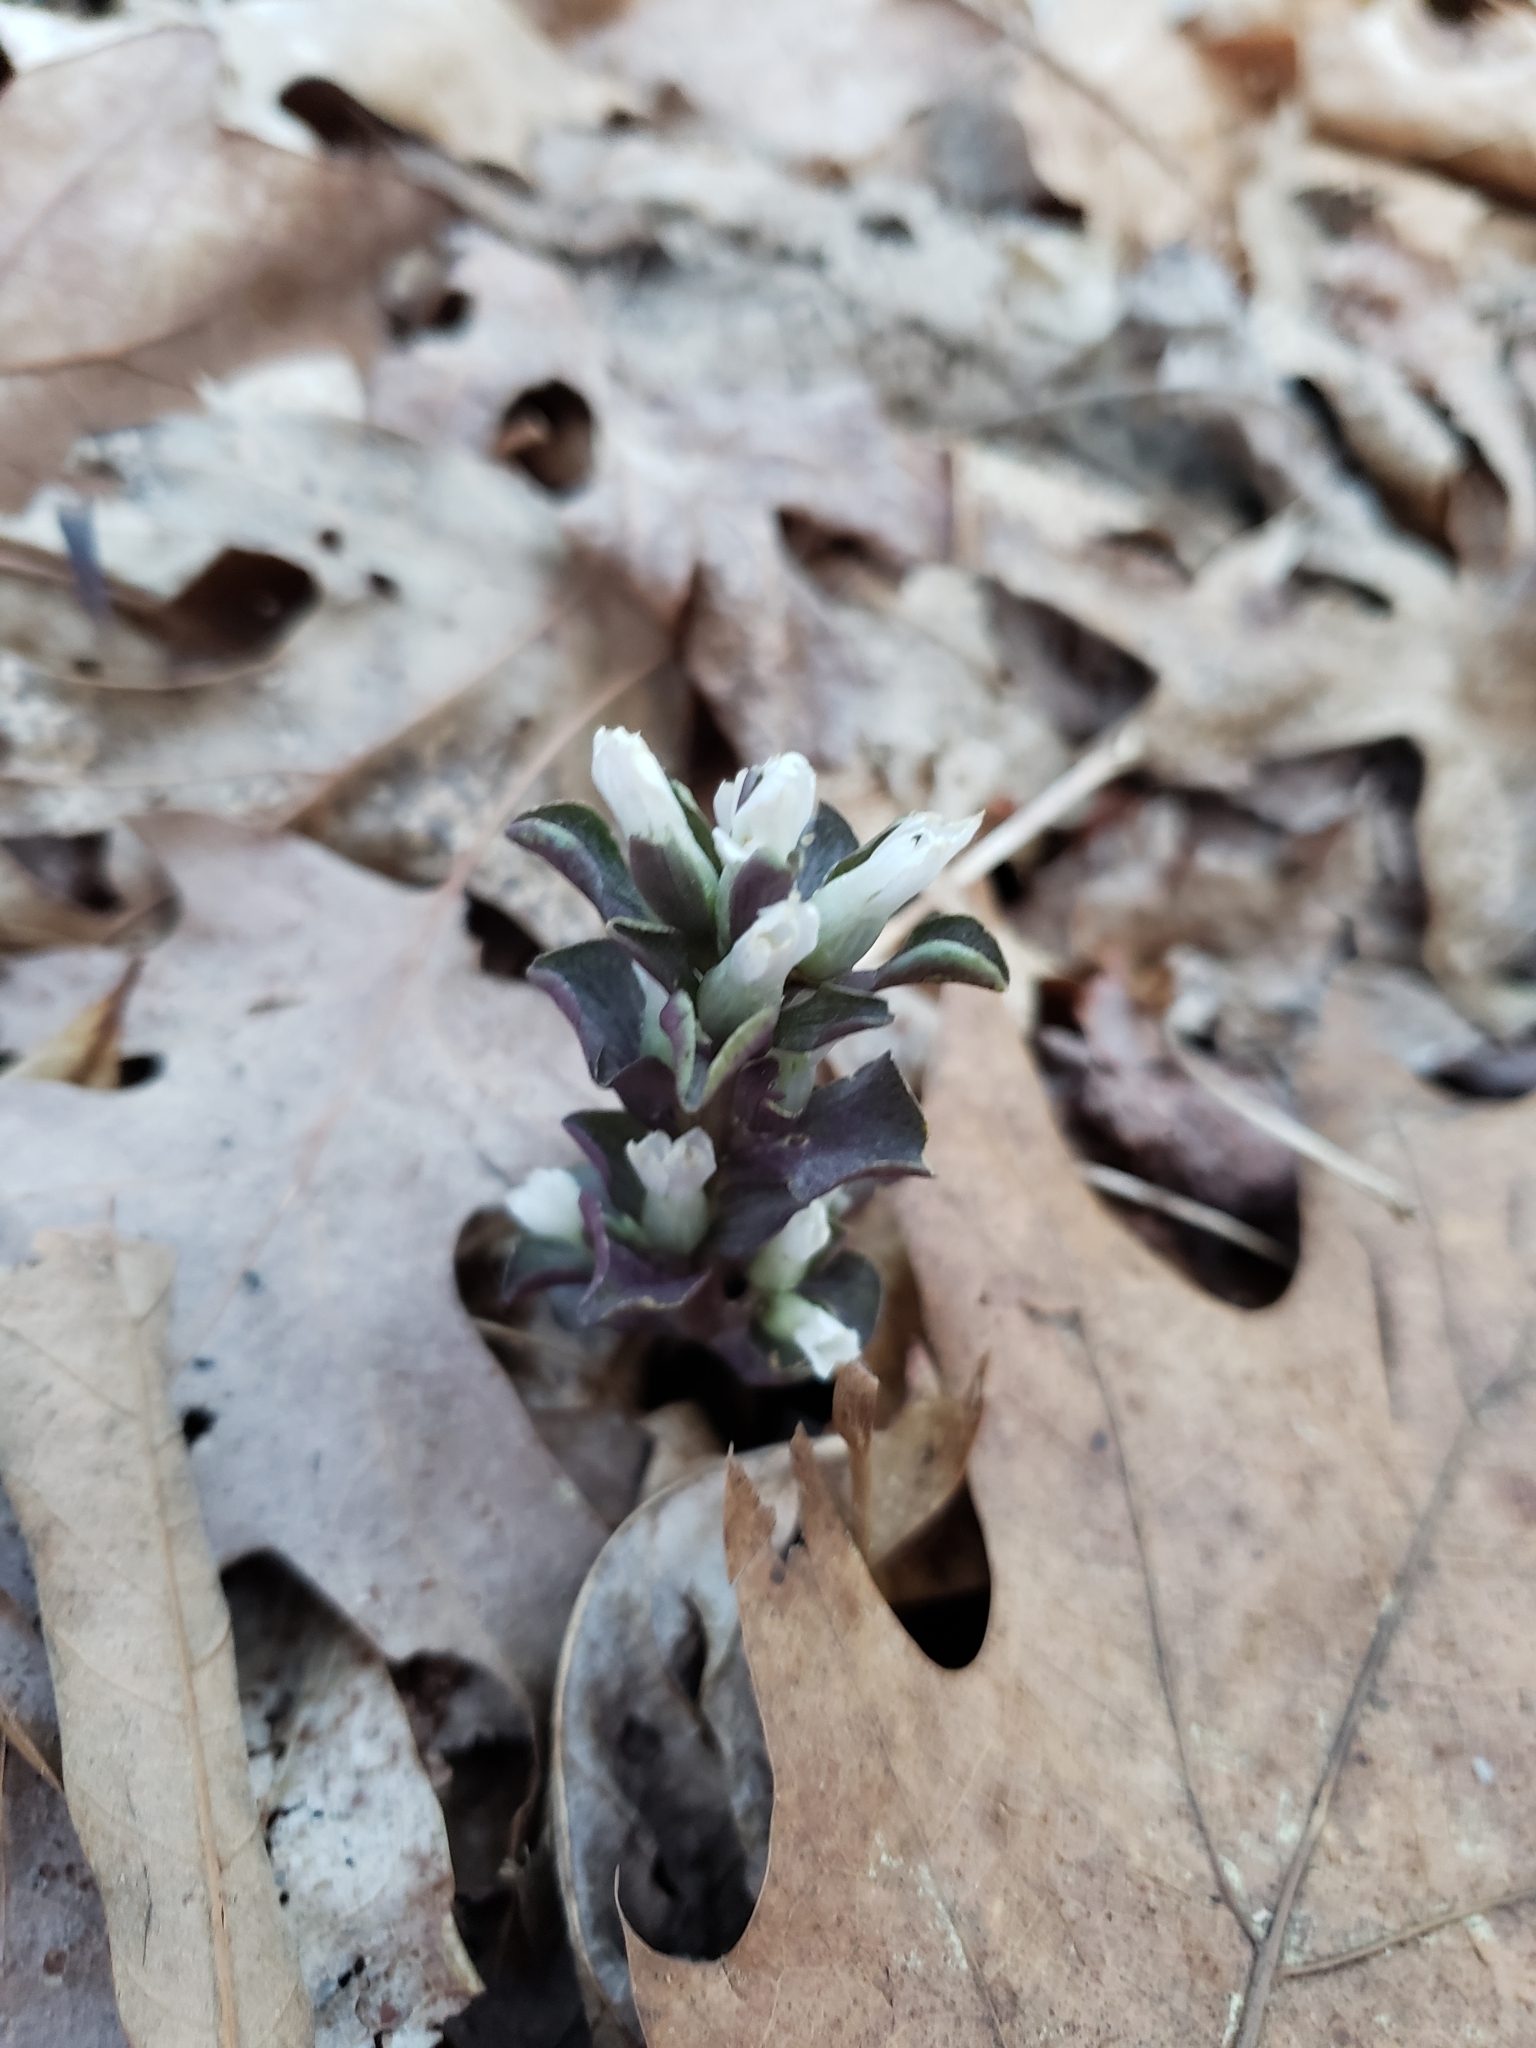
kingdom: Plantae
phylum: Tracheophyta
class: Magnoliopsida
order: Gentianales
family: Gentianaceae
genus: Obolaria
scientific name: Obolaria virginica
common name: Pennywort
